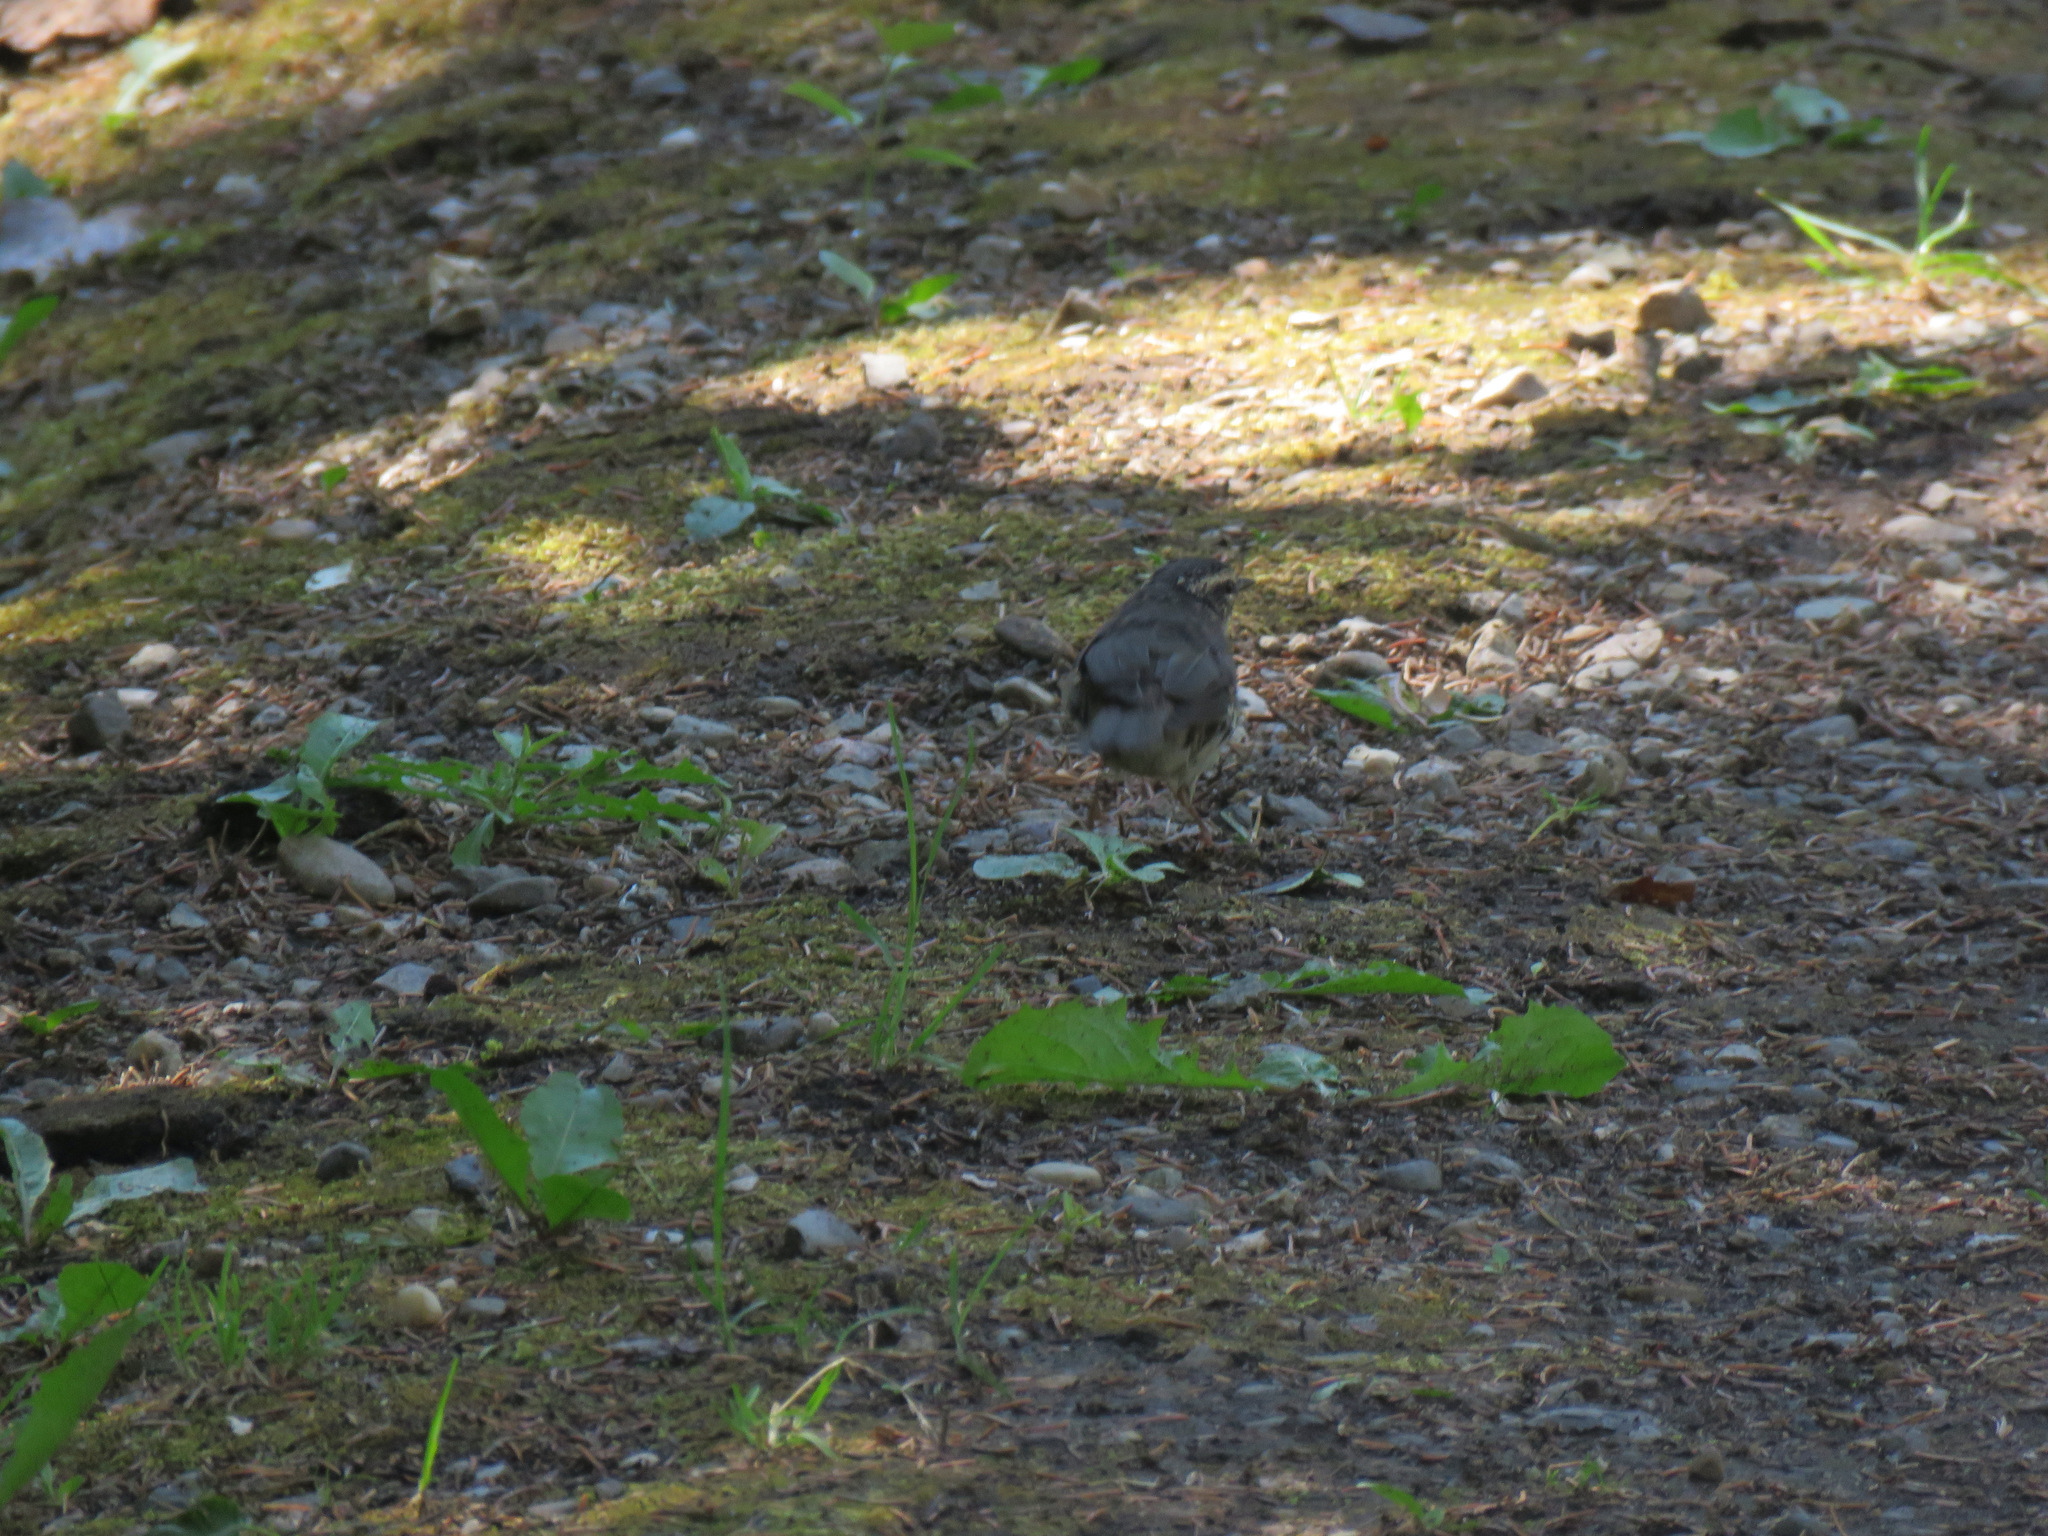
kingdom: Animalia
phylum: Chordata
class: Aves
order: Passeriformes
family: Parulidae
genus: Parkesia
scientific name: Parkesia noveboracensis
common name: Northern waterthrush
